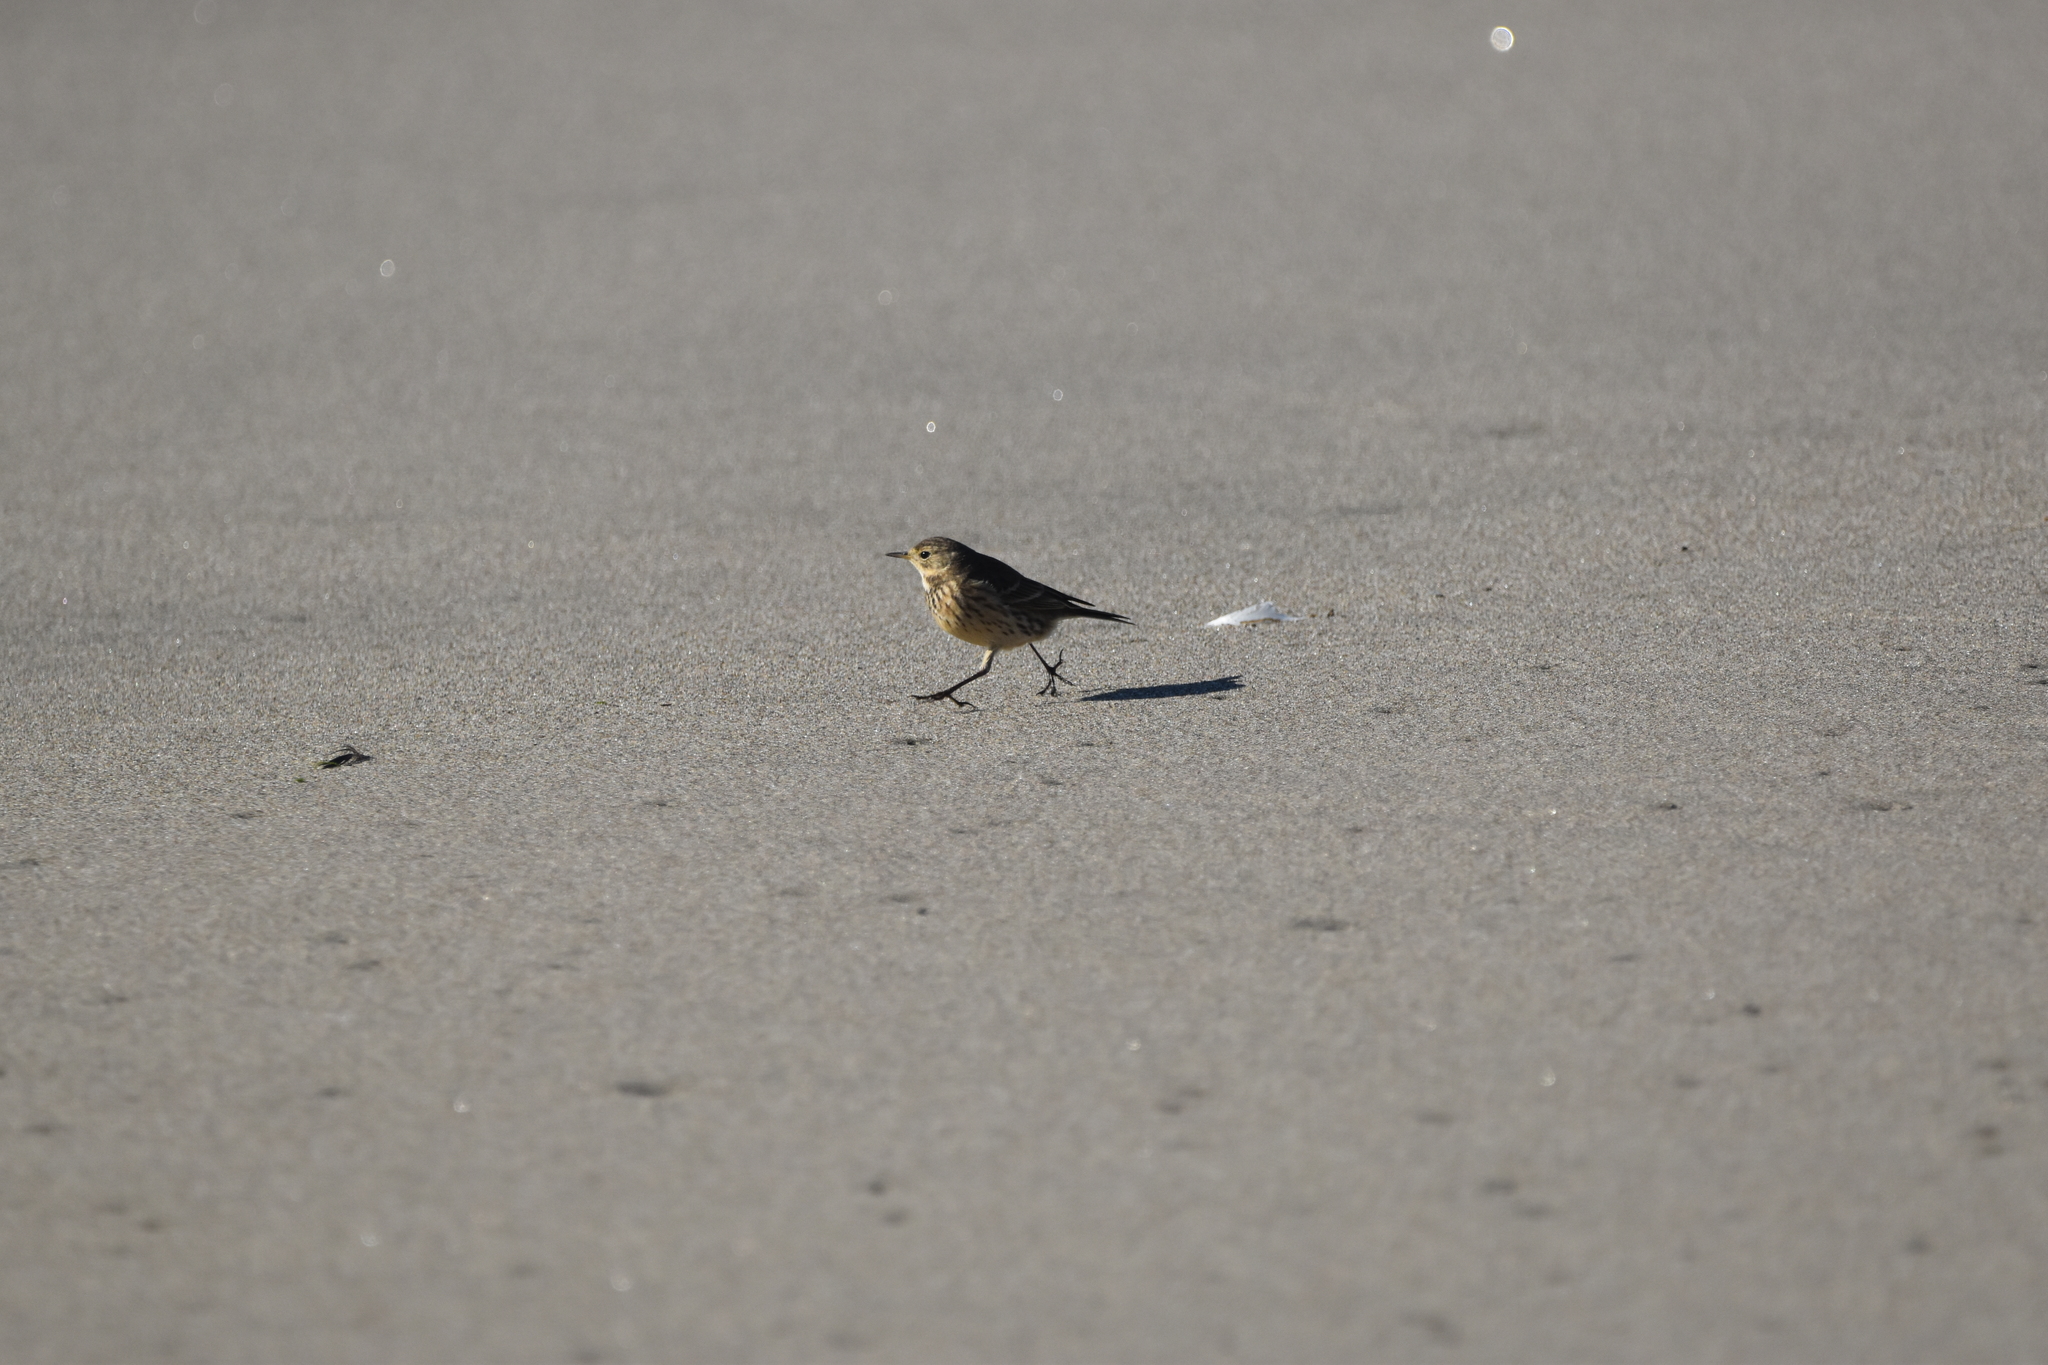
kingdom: Animalia
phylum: Chordata
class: Aves
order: Passeriformes
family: Motacillidae
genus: Anthus
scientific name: Anthus rubescens
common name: Buff-bellied pipit
